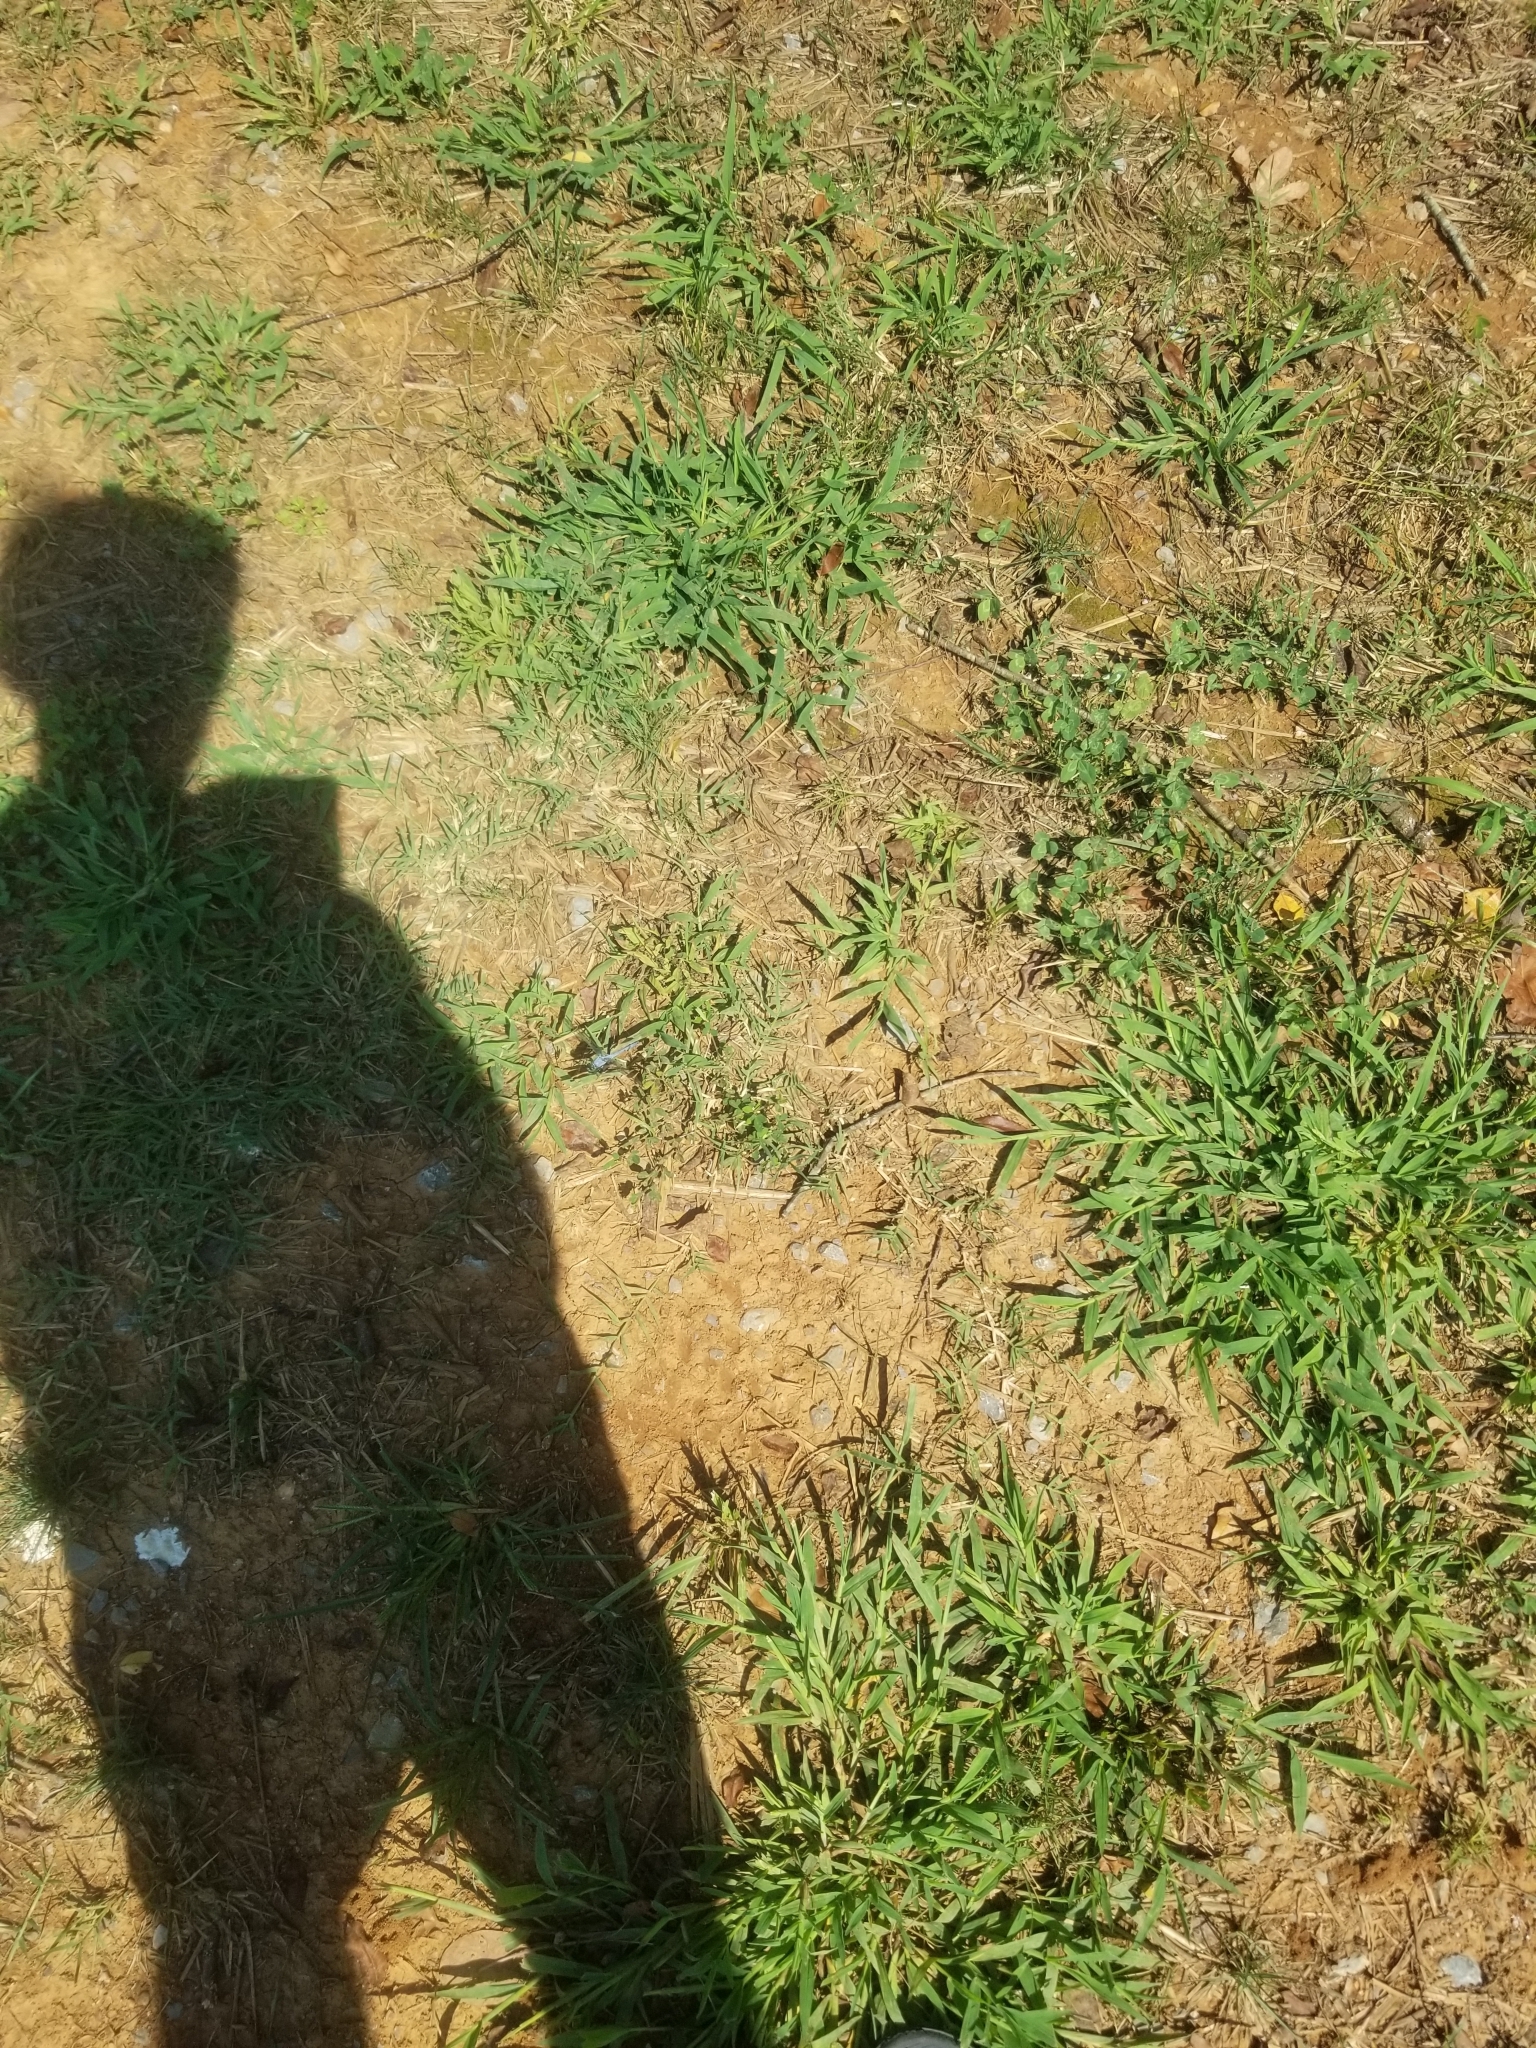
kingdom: Animalia
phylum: Arthropoda
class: Insecta
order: Odonata
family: Libellulidae
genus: Erythemis
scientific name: Erythemis simplicicollis
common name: Eastern pondhawk
